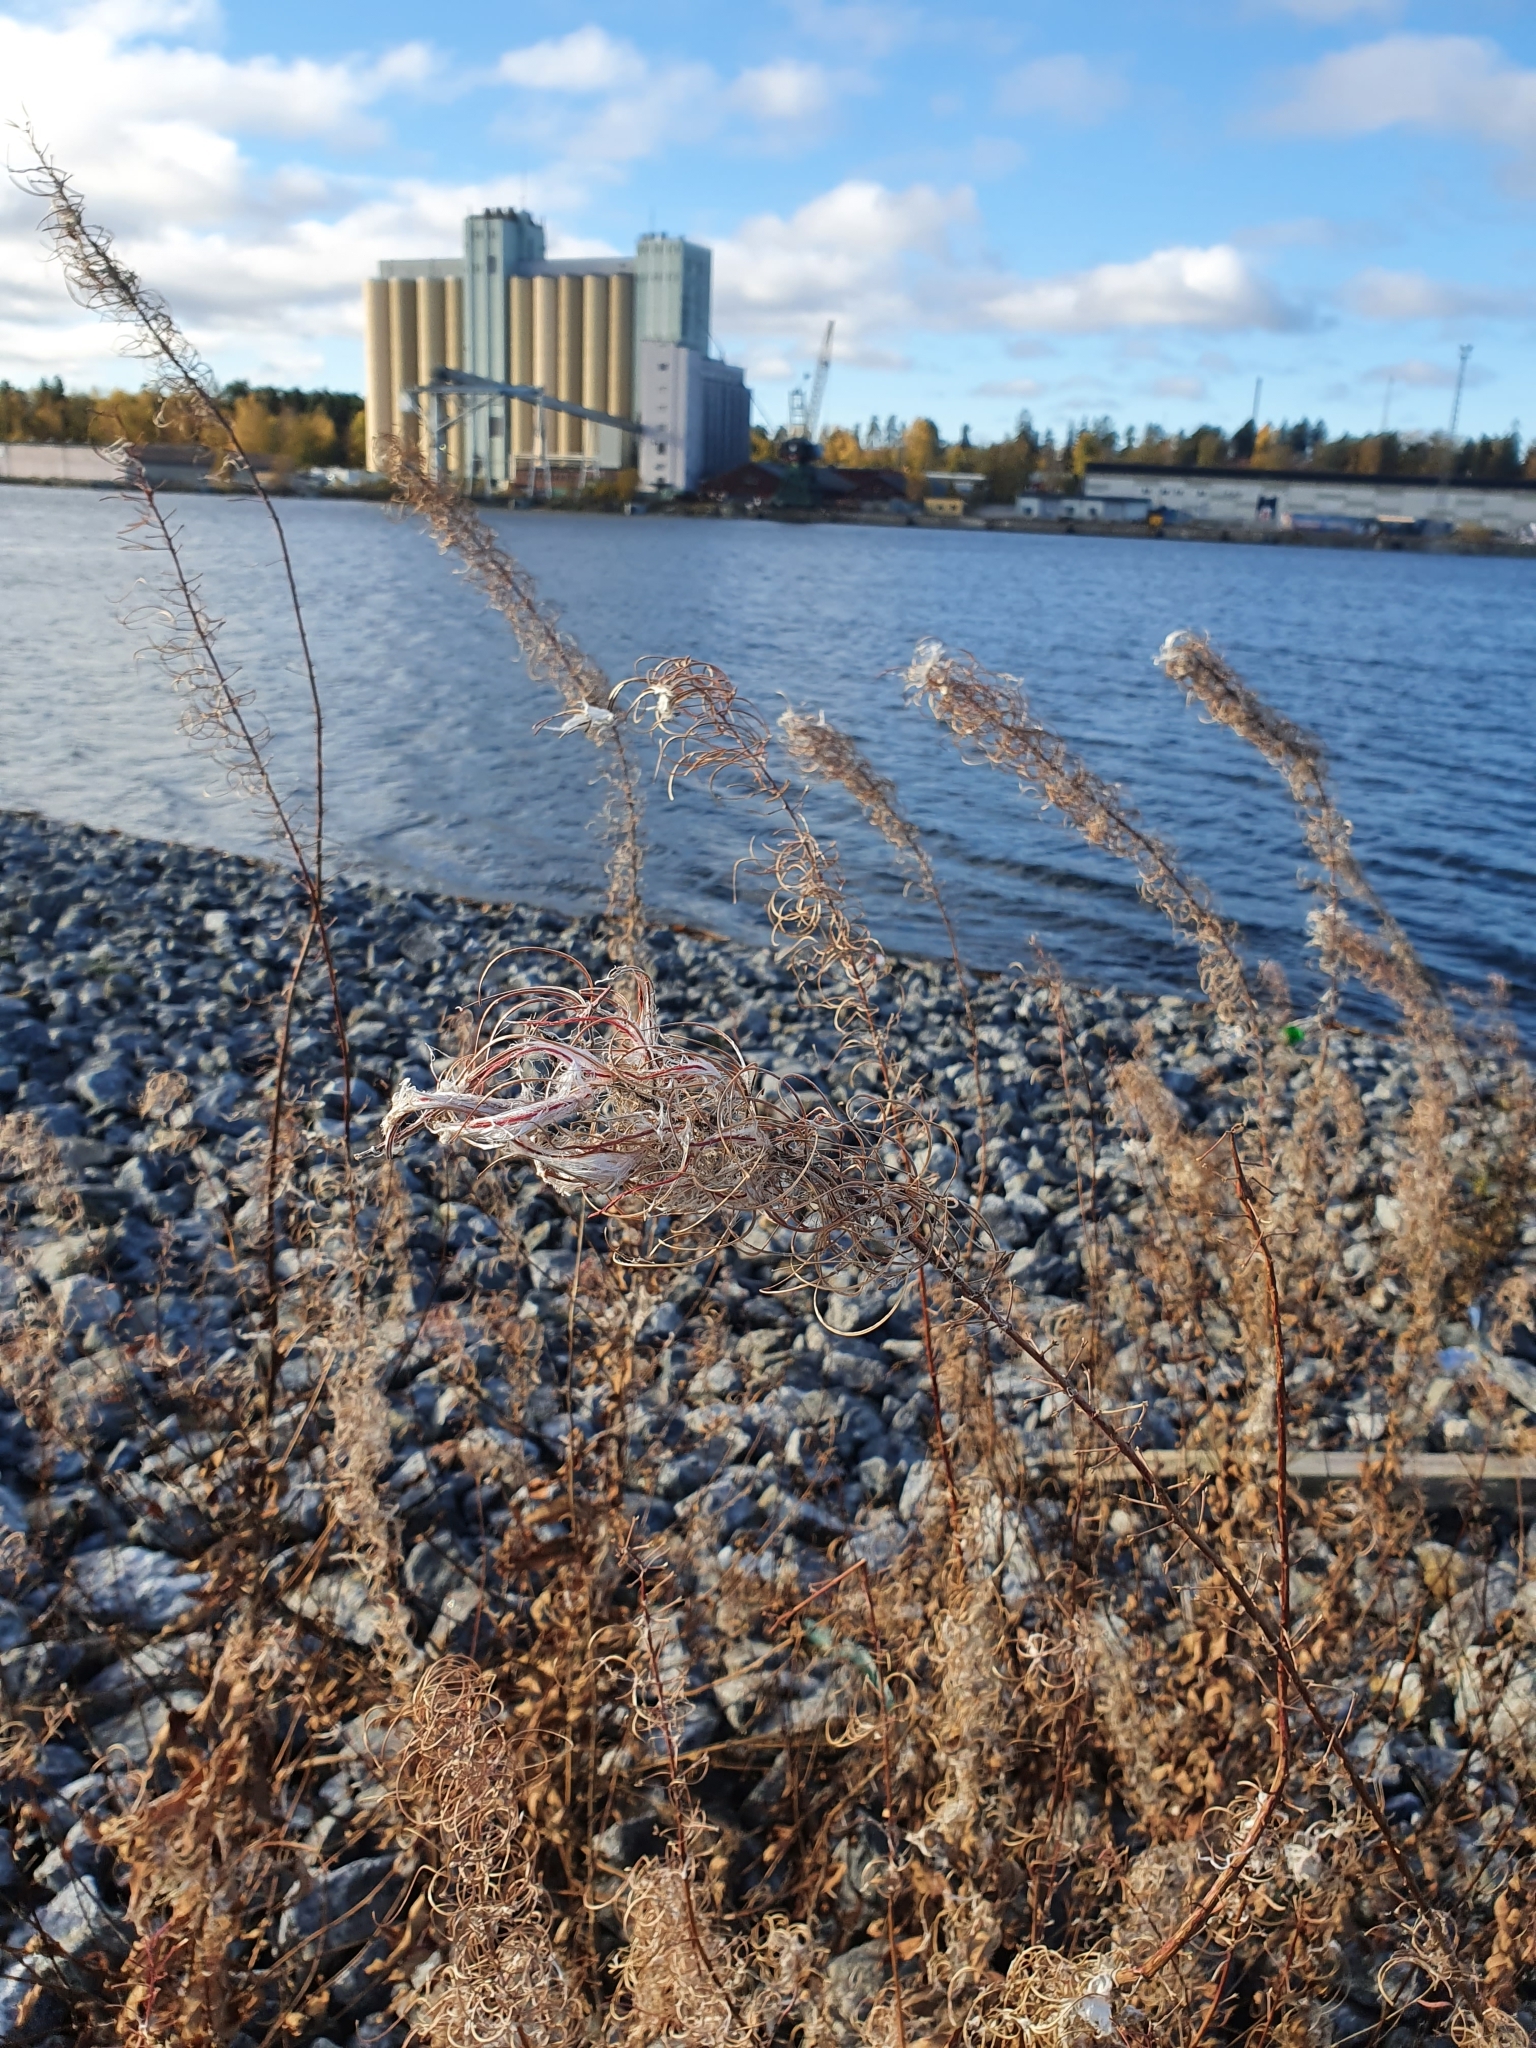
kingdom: Plantae
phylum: Tracheophyta
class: Magnoliopsida
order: Myrtales
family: Onagraceae
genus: Chamaenerion
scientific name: Chamaenerion angustifolium
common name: Fireweed
